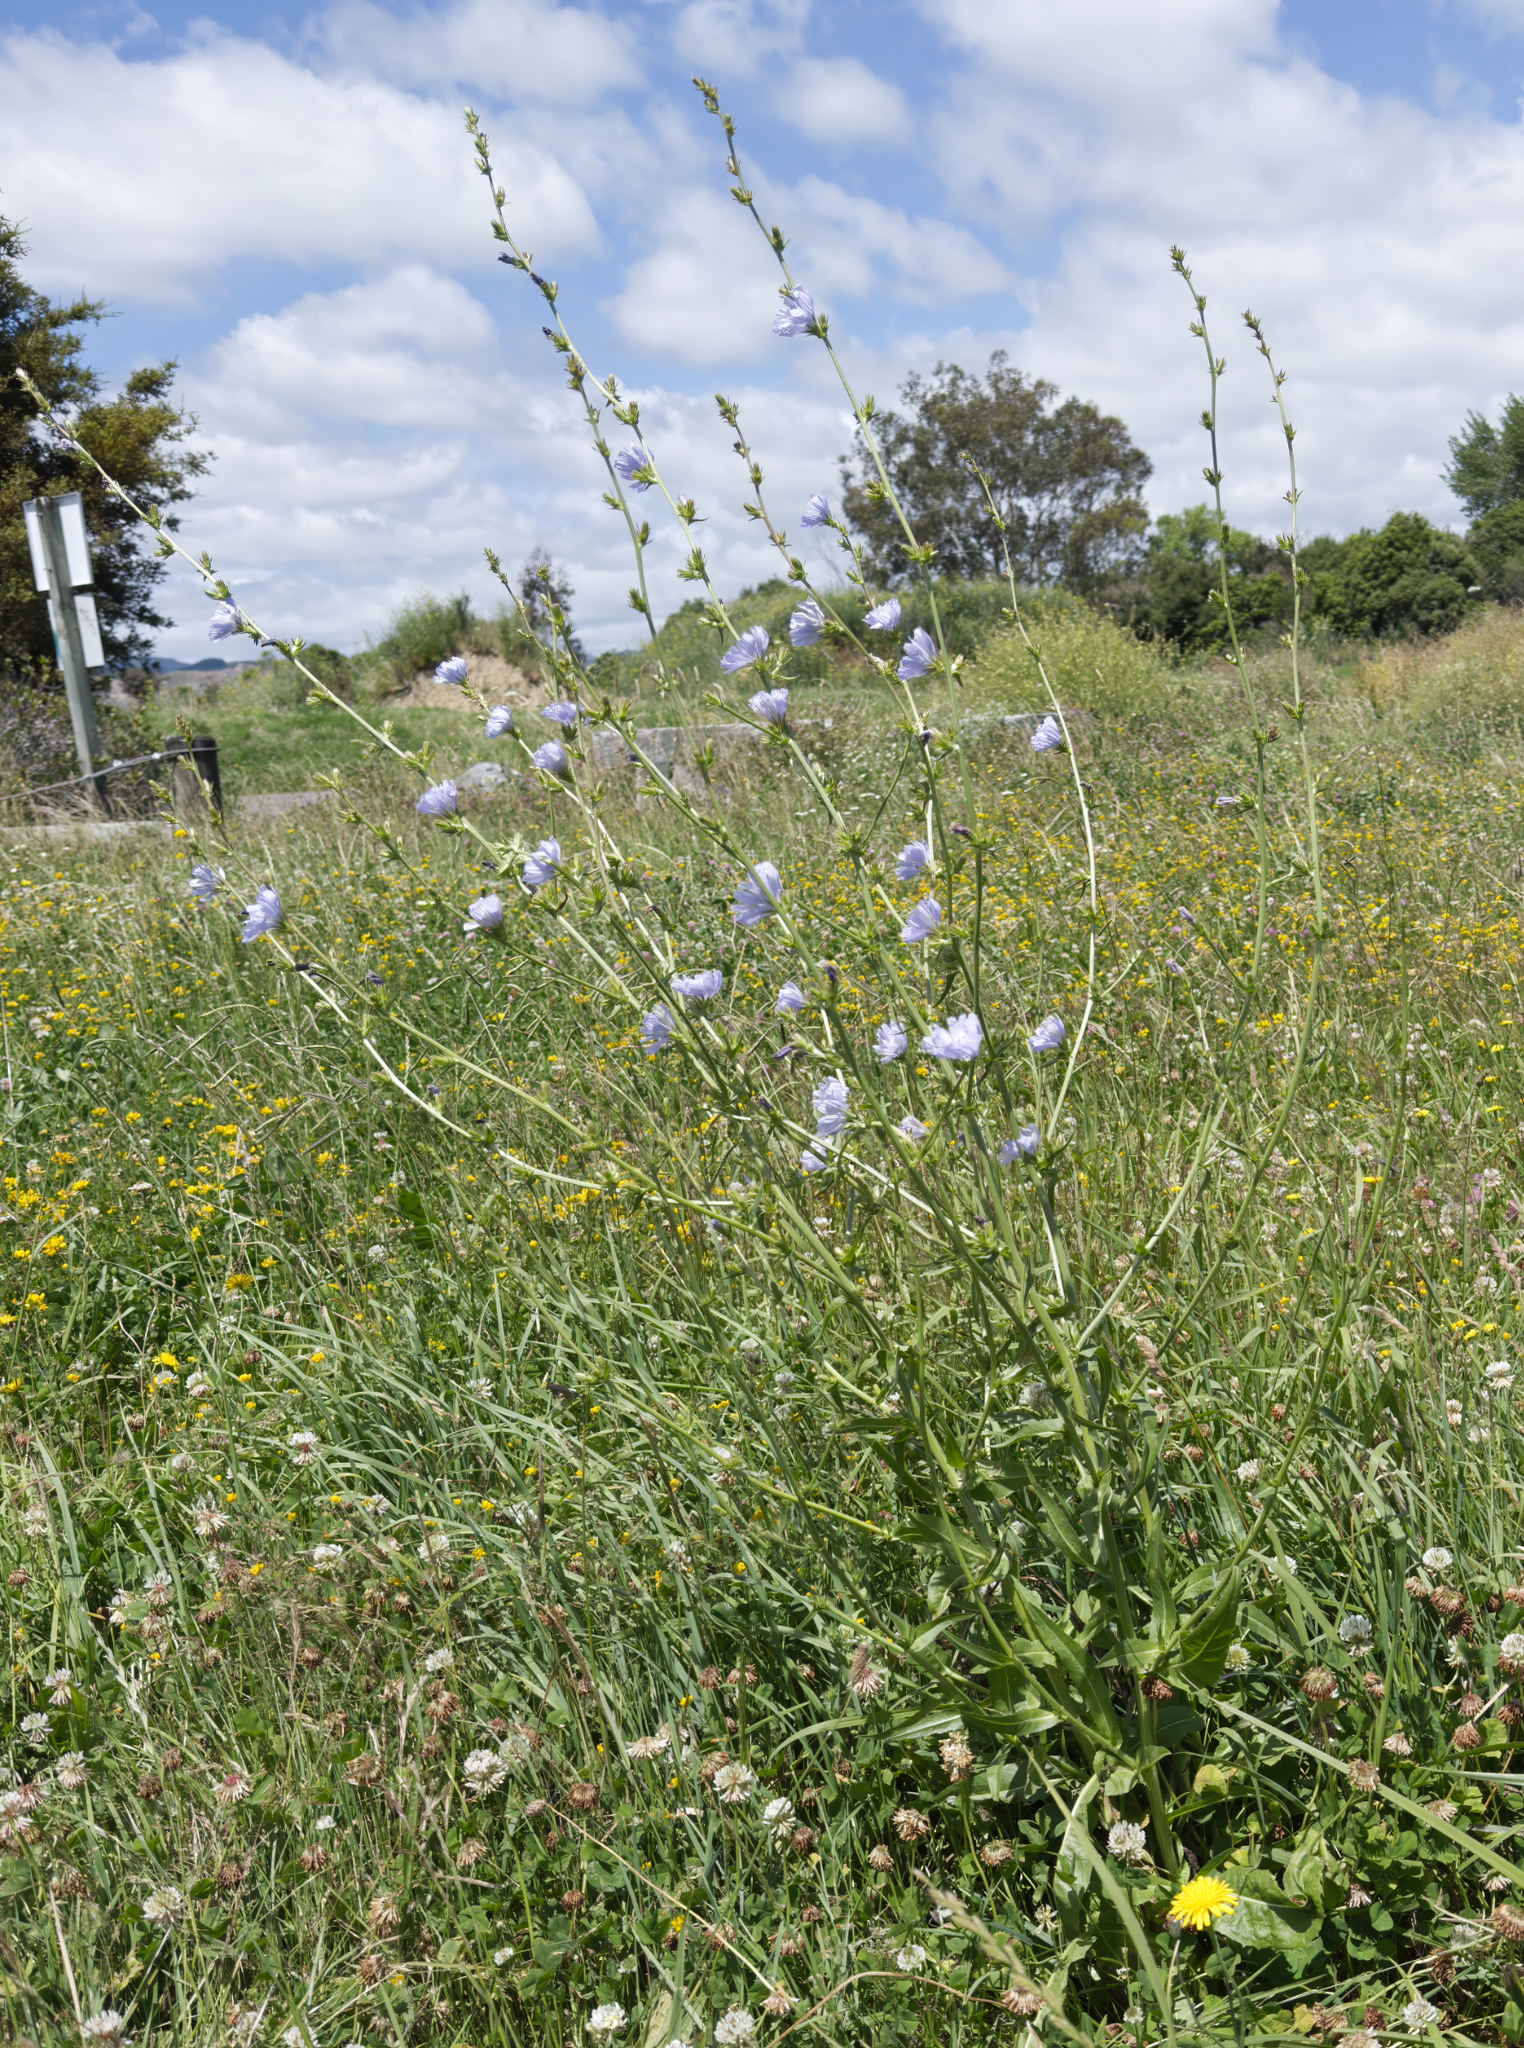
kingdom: Plantae
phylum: Tracheophyta
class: Magnoliopsida
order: Asterales
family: Asteraceae
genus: Cichorium
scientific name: Cichorium intybus
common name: Chicory
